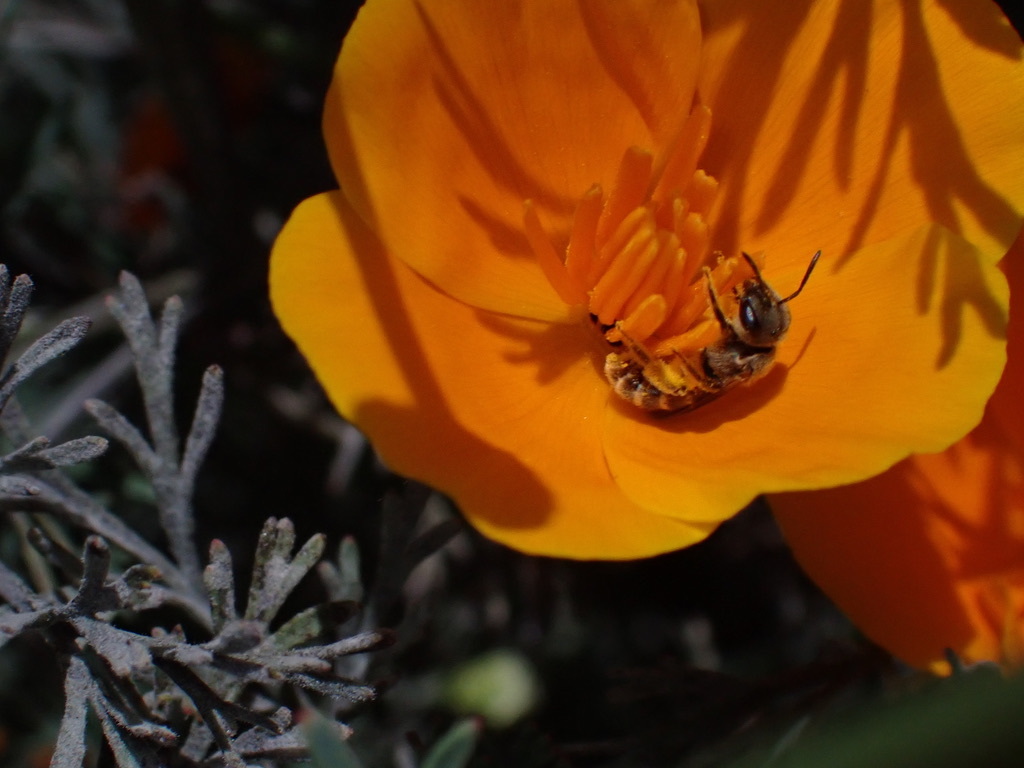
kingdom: Animalia
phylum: Arthropoda
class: Insecta
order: Hymenoptera
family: Halictidae
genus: Halictus
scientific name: Halictus tripartitus
